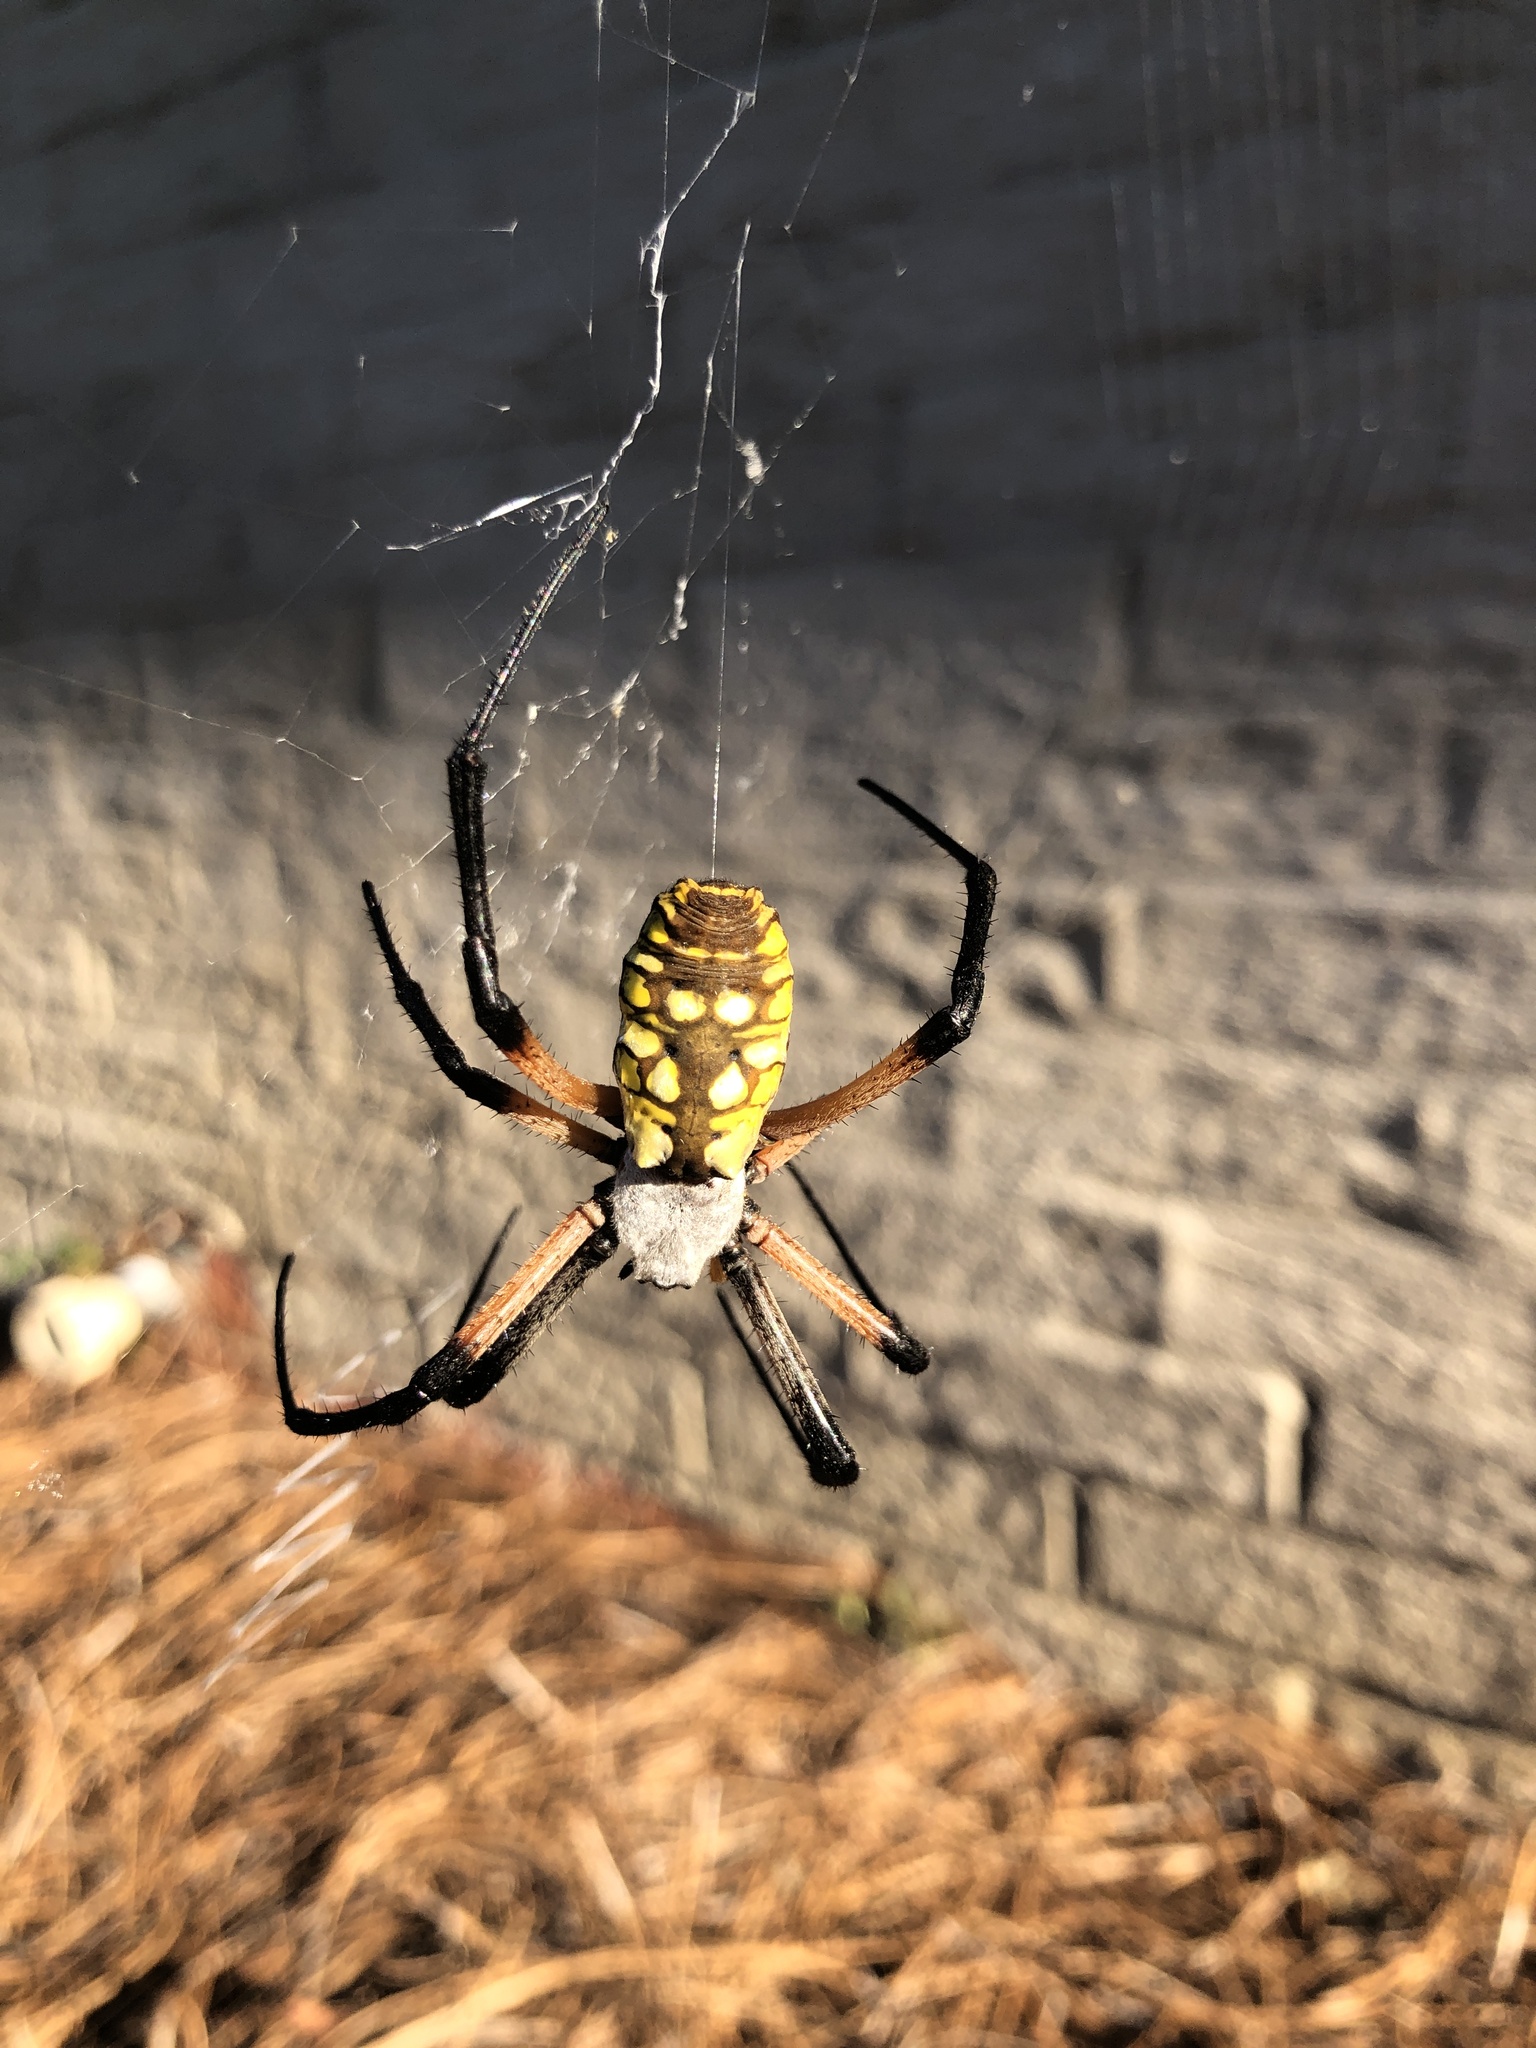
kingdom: Animalia
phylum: Arthropoda
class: Arachnida
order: Araneae
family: Araneidae
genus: Argiope
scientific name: Argiope aurantia
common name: Orb weavers
